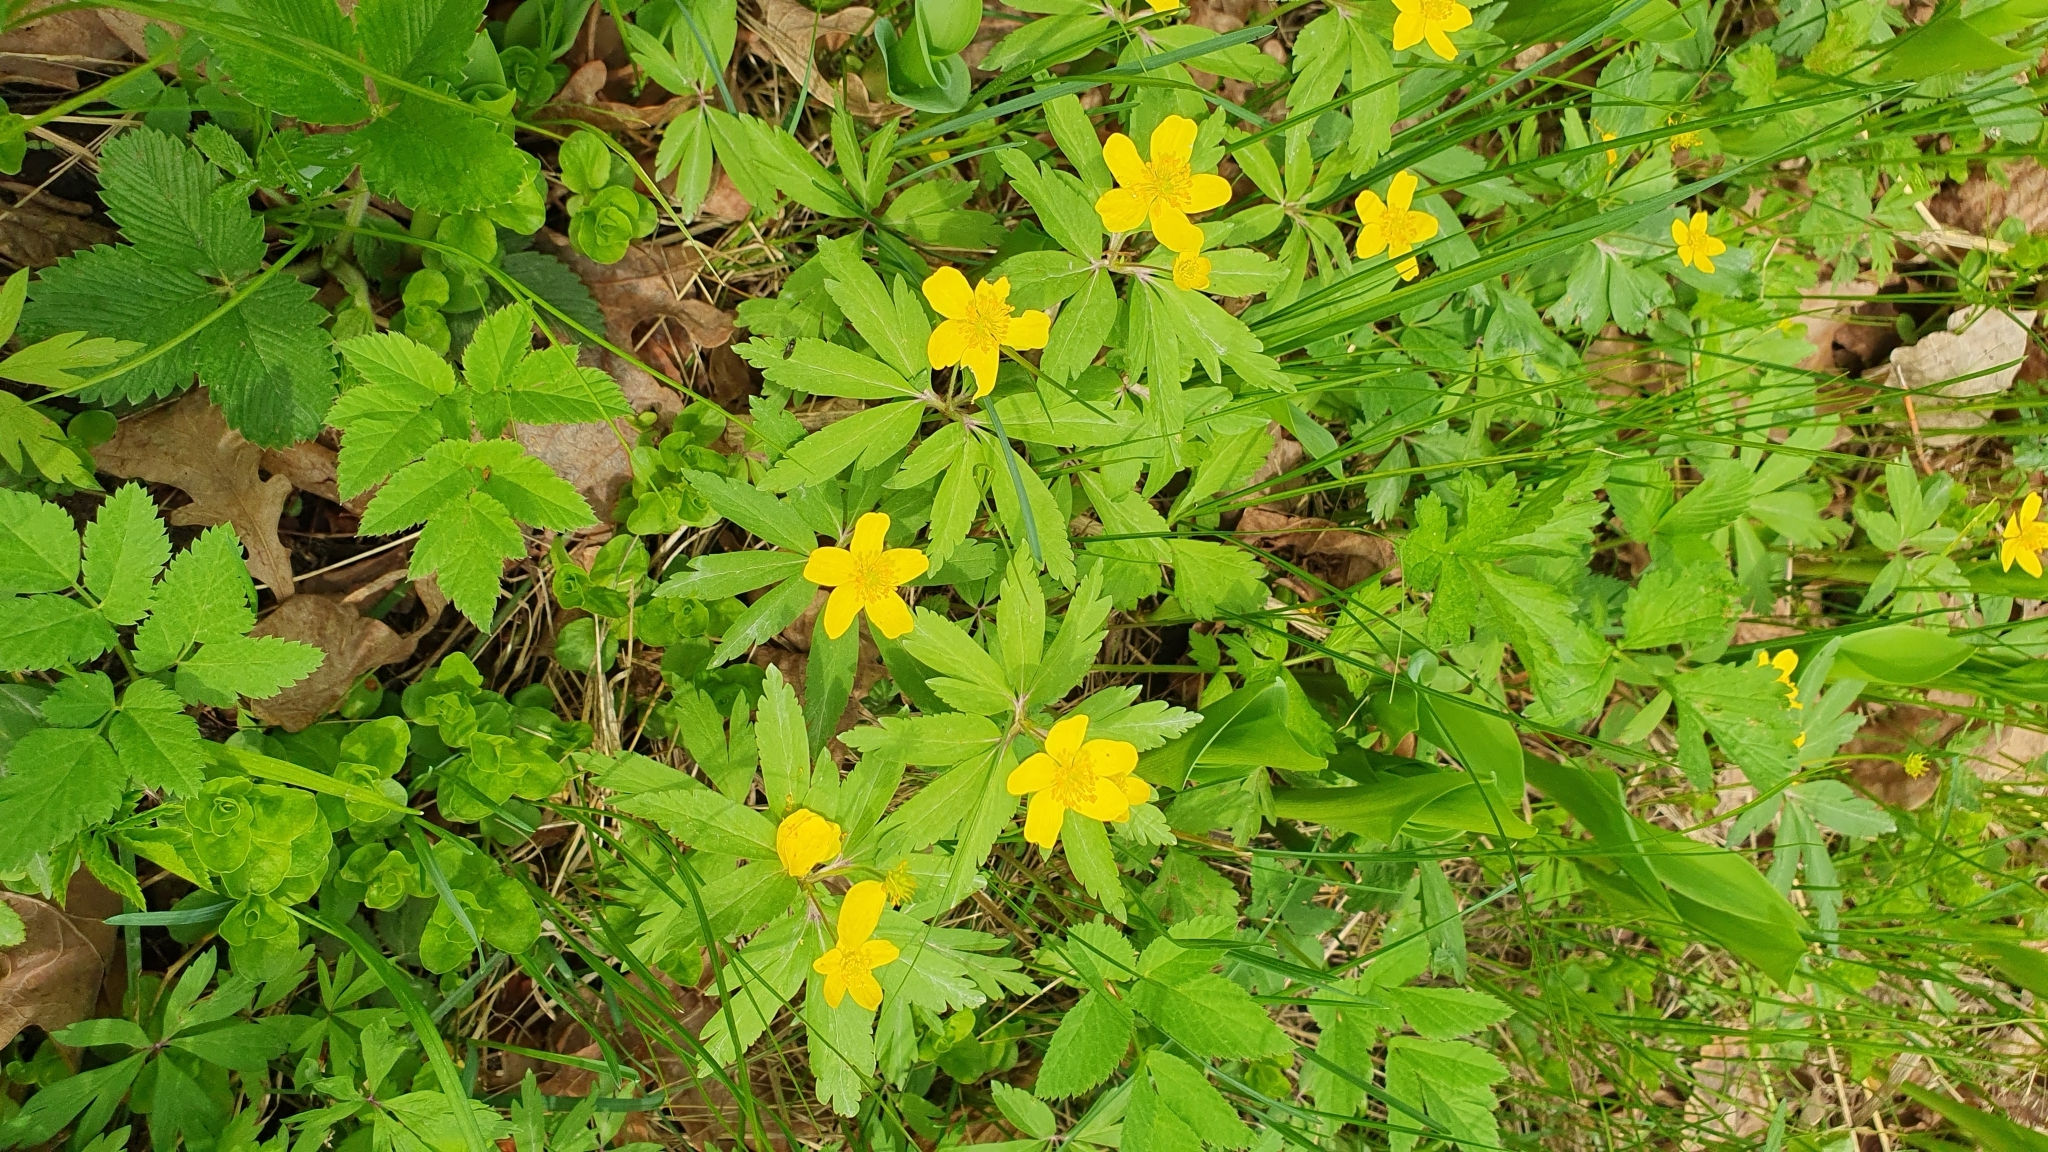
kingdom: Plantae
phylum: Tracheophyta
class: Magnoliopsida
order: Ranunculales
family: Ranunculaceae
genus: Anemone
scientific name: Anemone ranunculoides
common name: Yellow anemone
